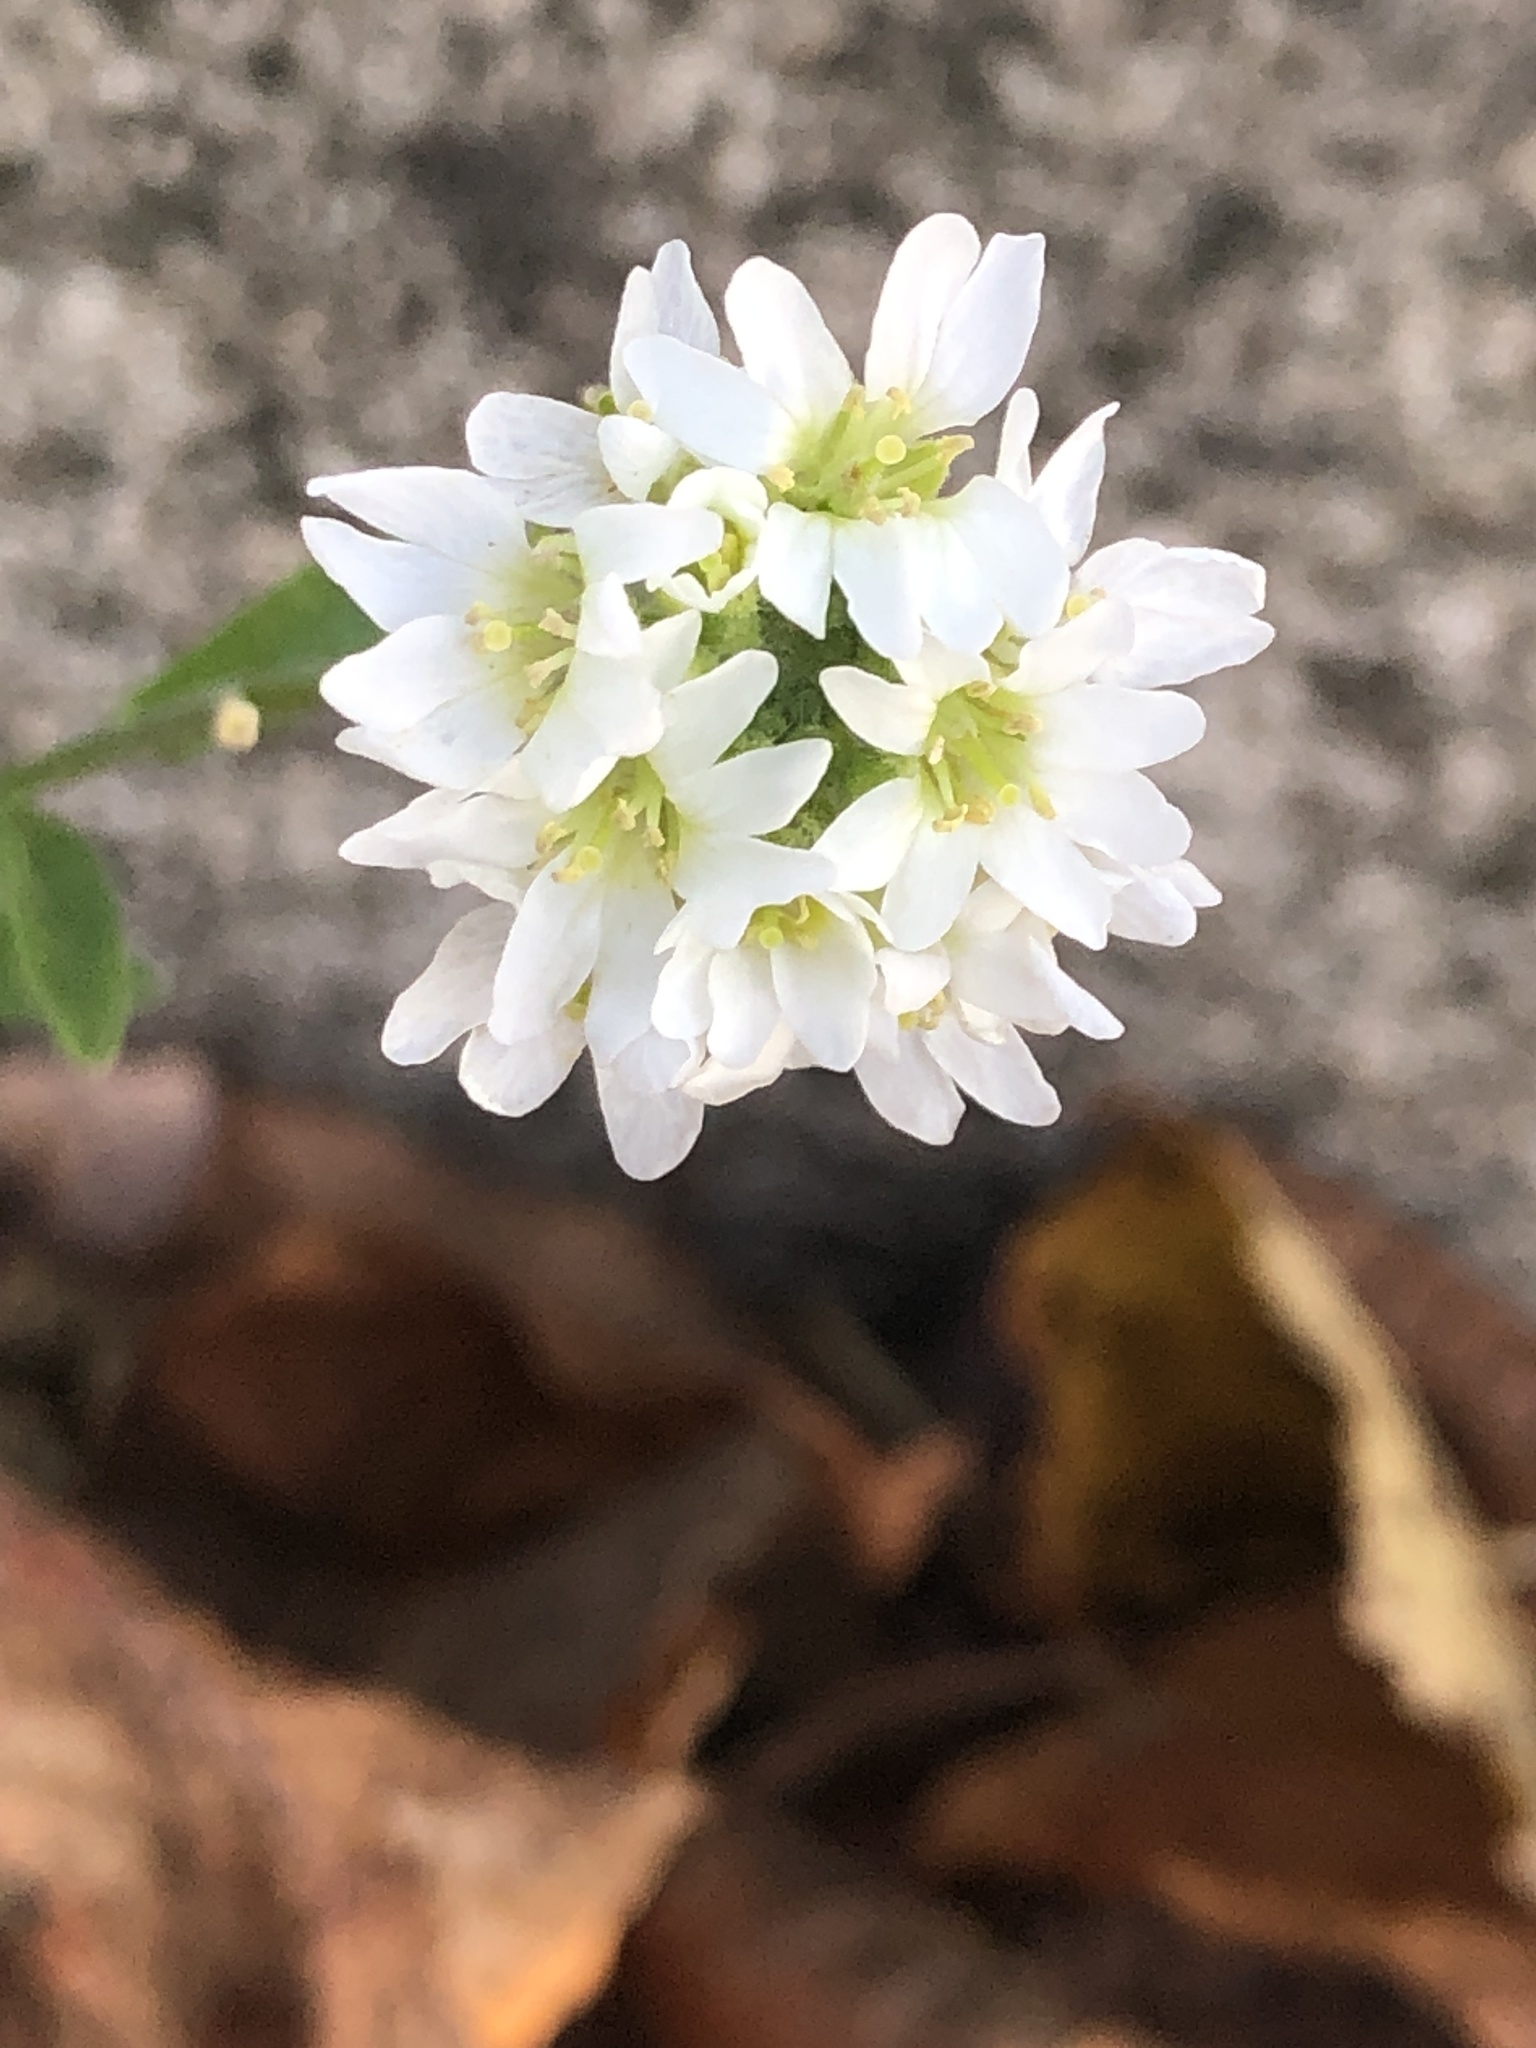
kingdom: Plantae
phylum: Tracheophyta
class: Magnoliopsida
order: Brassicales
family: Brassicaceae
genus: Berteroa
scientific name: Berteroa incana
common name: Hoary alison
